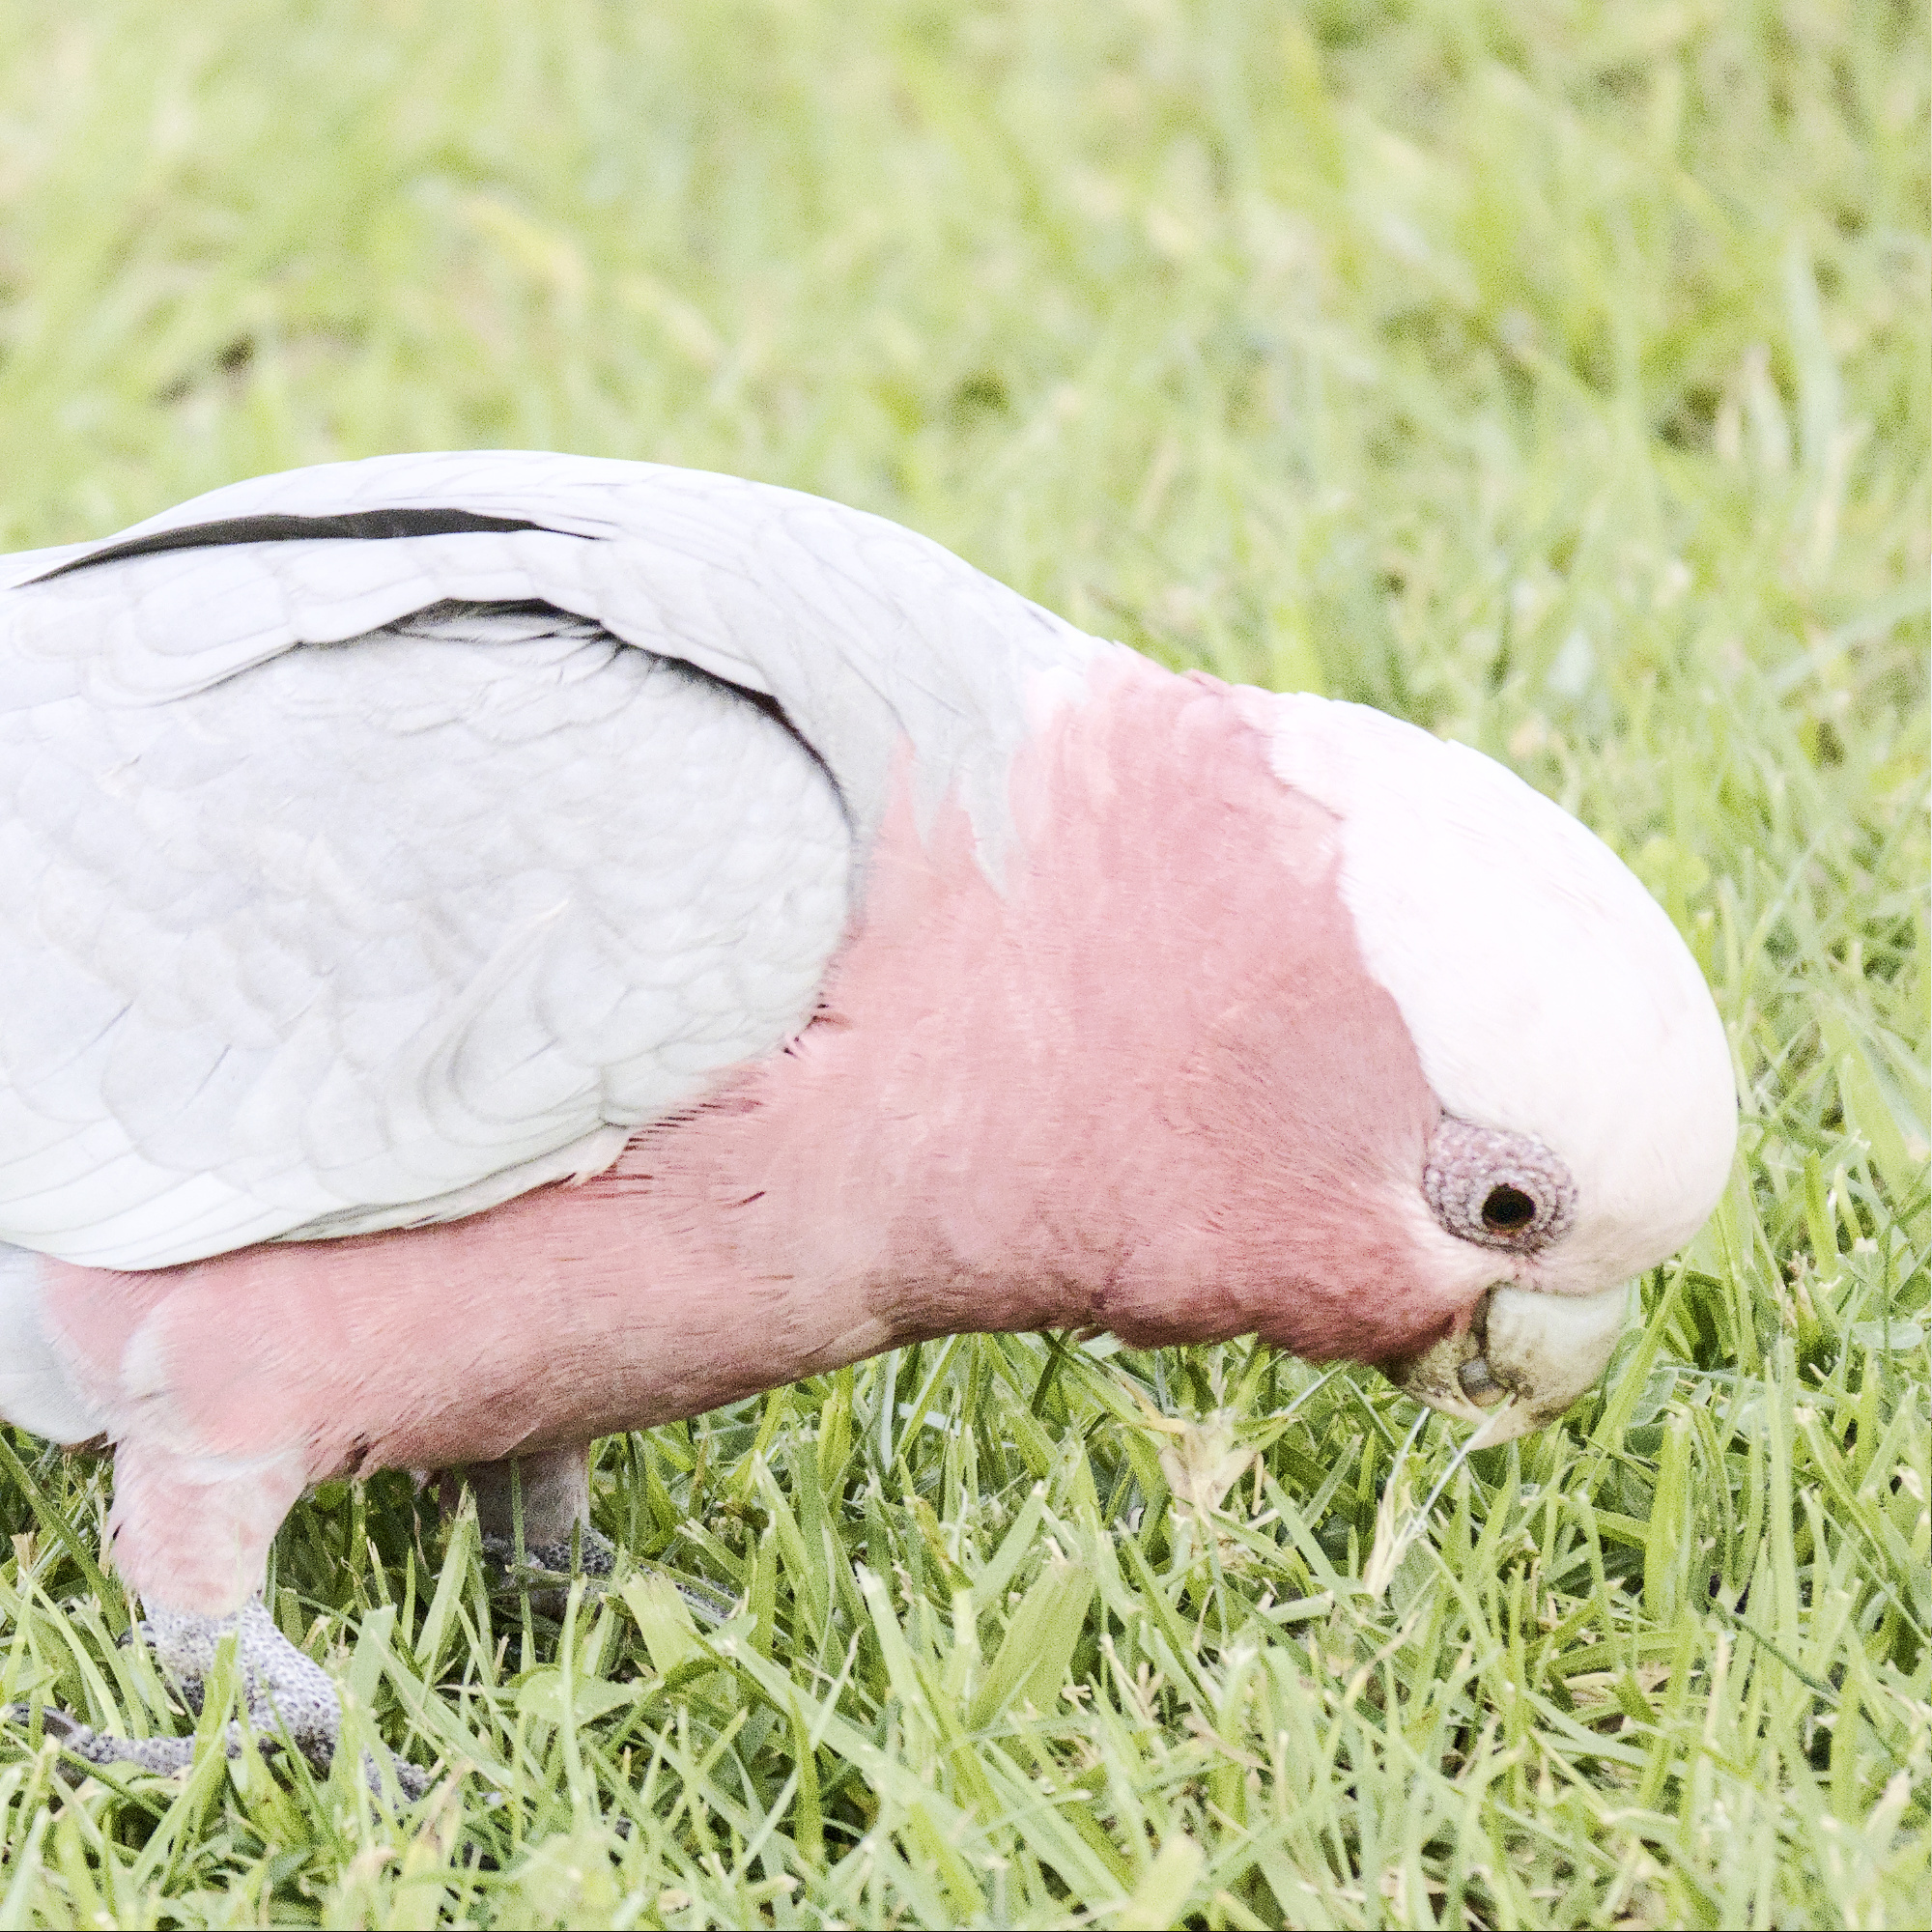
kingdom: Animalia
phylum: Chordata
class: Aves
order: Psittaciformes
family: Psittacidae
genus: Eolophus
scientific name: Eolophus roseicapilla
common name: Galah
